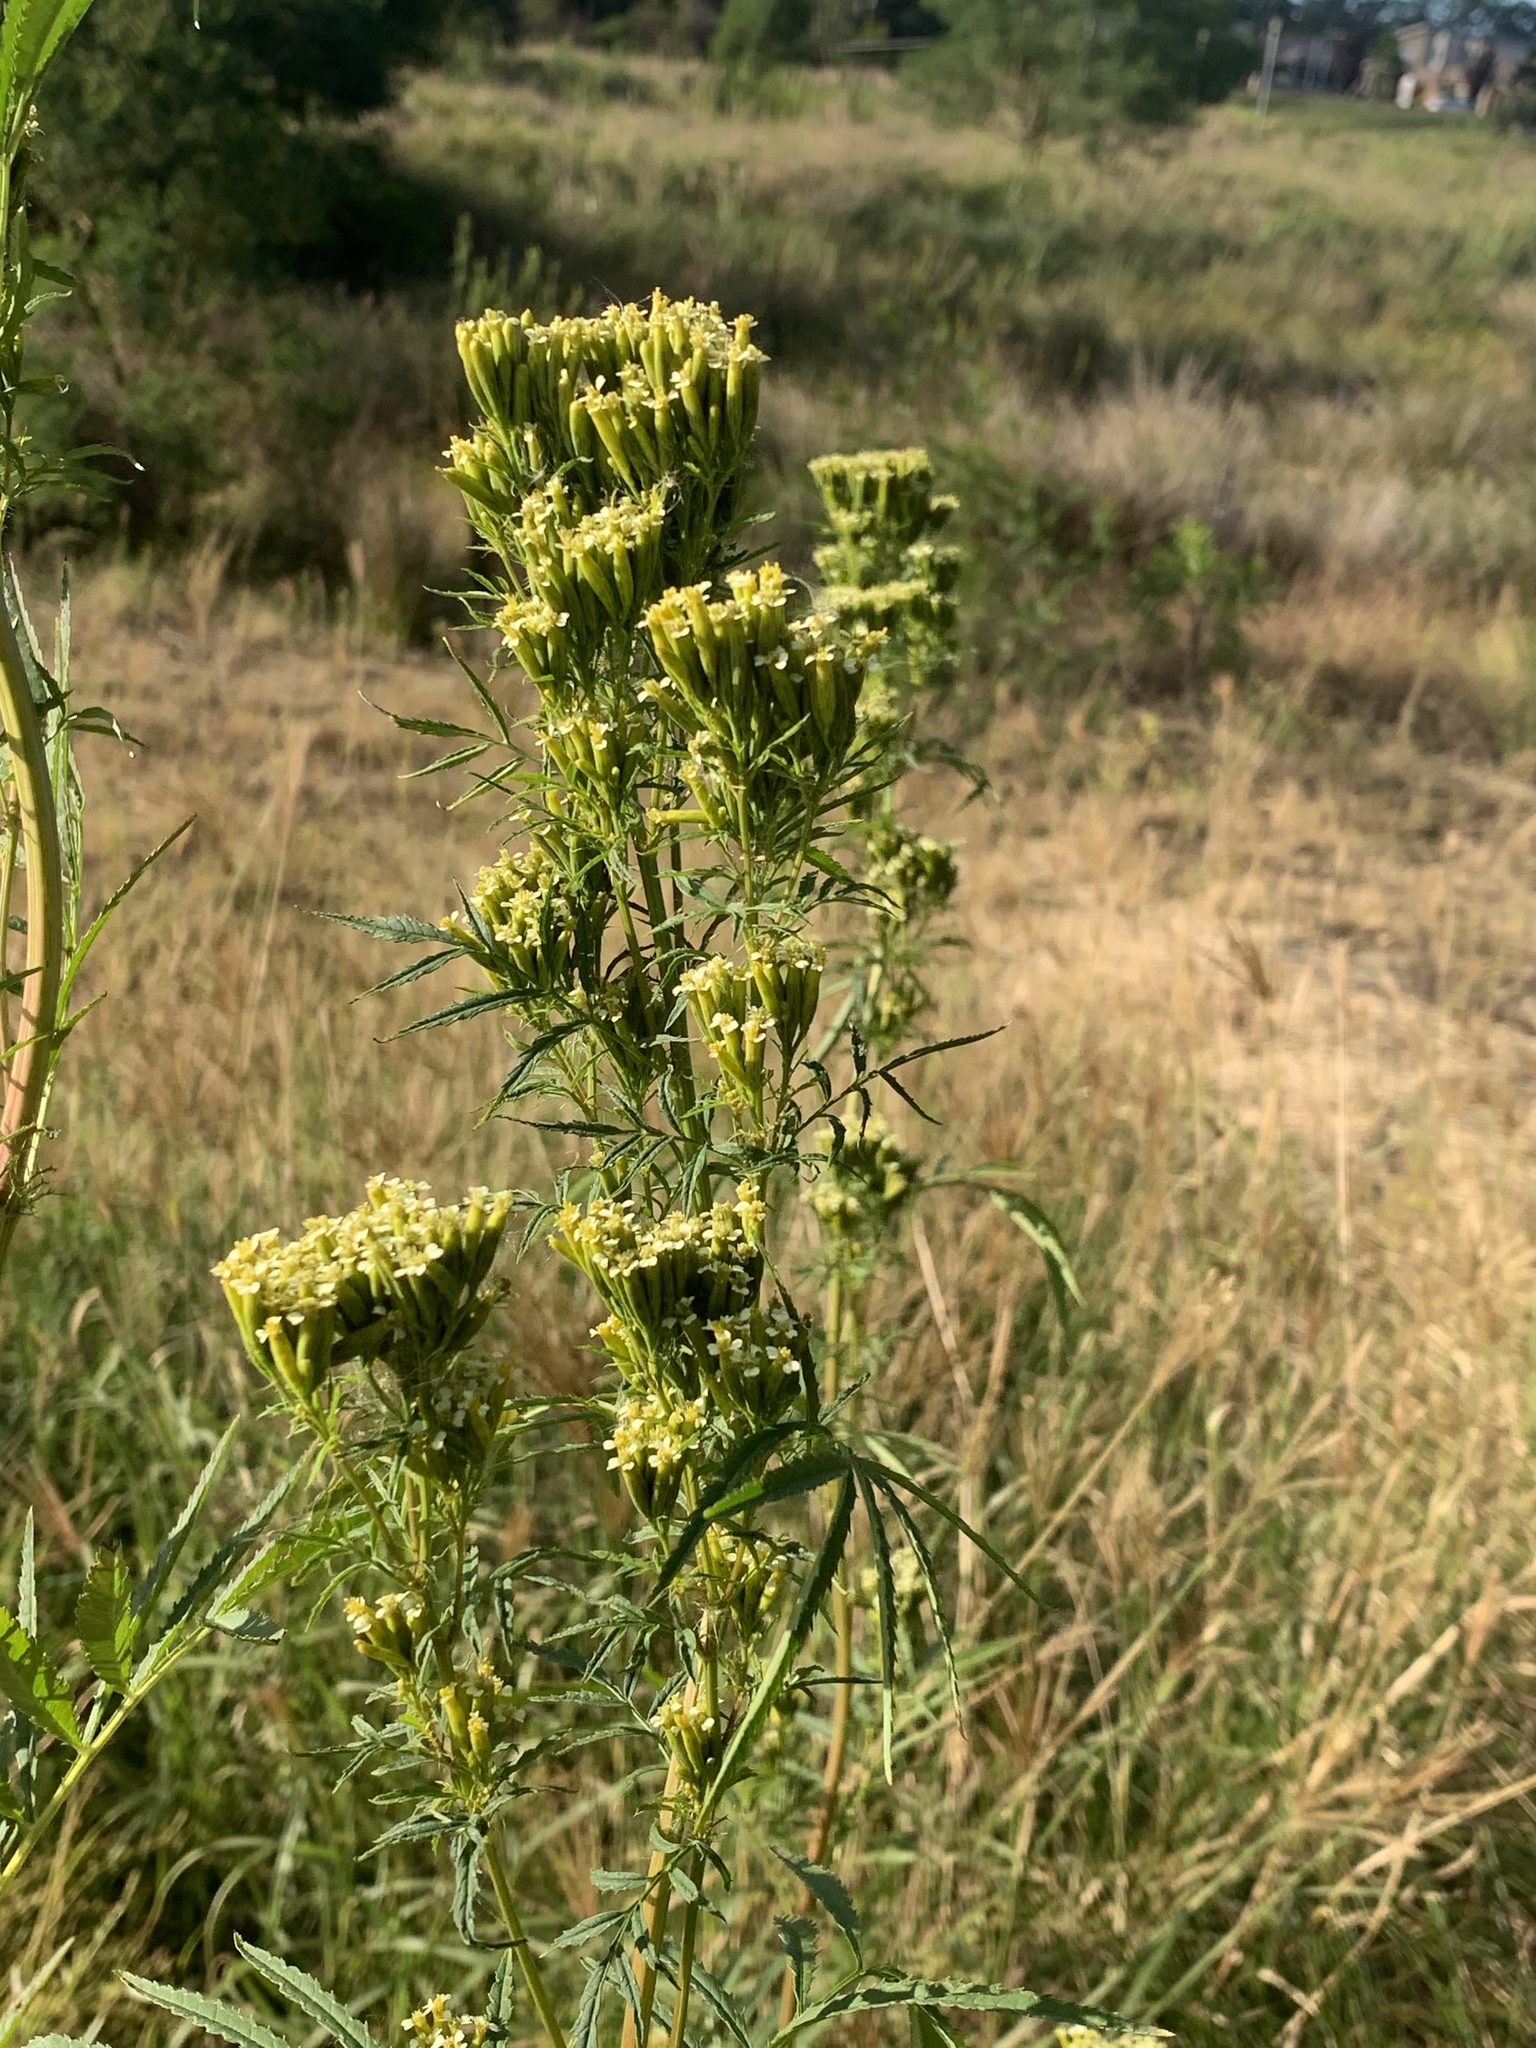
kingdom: Plantae
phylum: Tracheophyta
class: Magnoliopsida
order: Asterales
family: Asteraceae
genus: Tagetes
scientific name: Tagetes minuta
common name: Muster john henry
